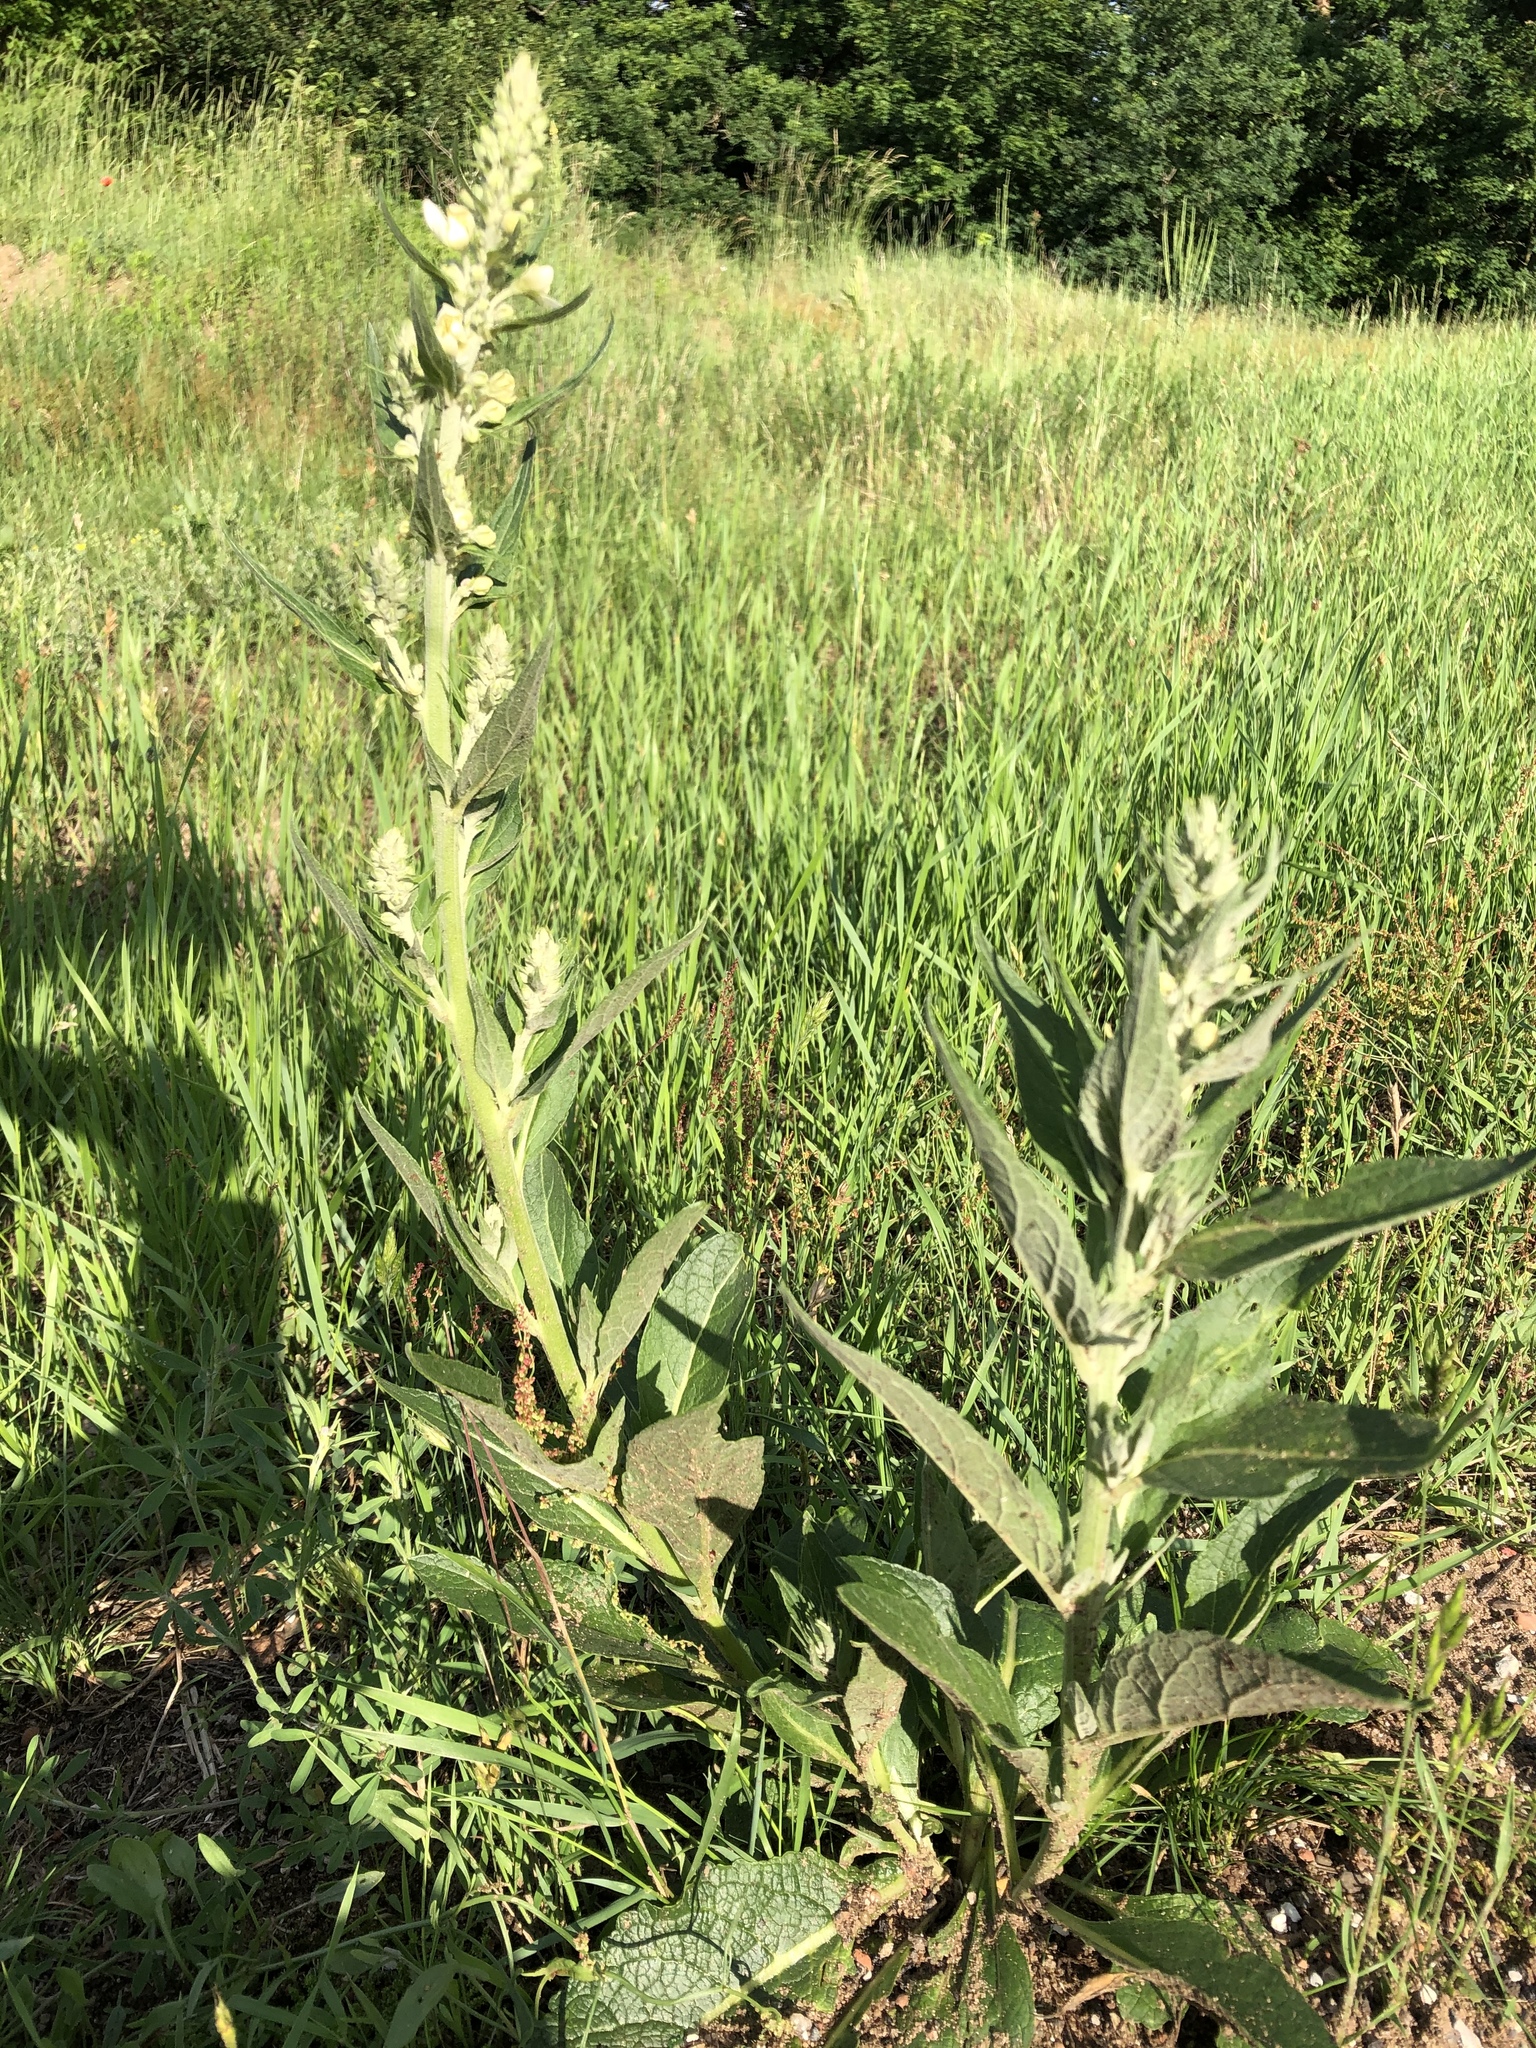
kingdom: Plantae
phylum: Tracheophyta
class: Magnoliopsida
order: Lamiales
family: Scrophulariaceae
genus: Verbascum
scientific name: Verbascum lychnitis
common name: White mullein
